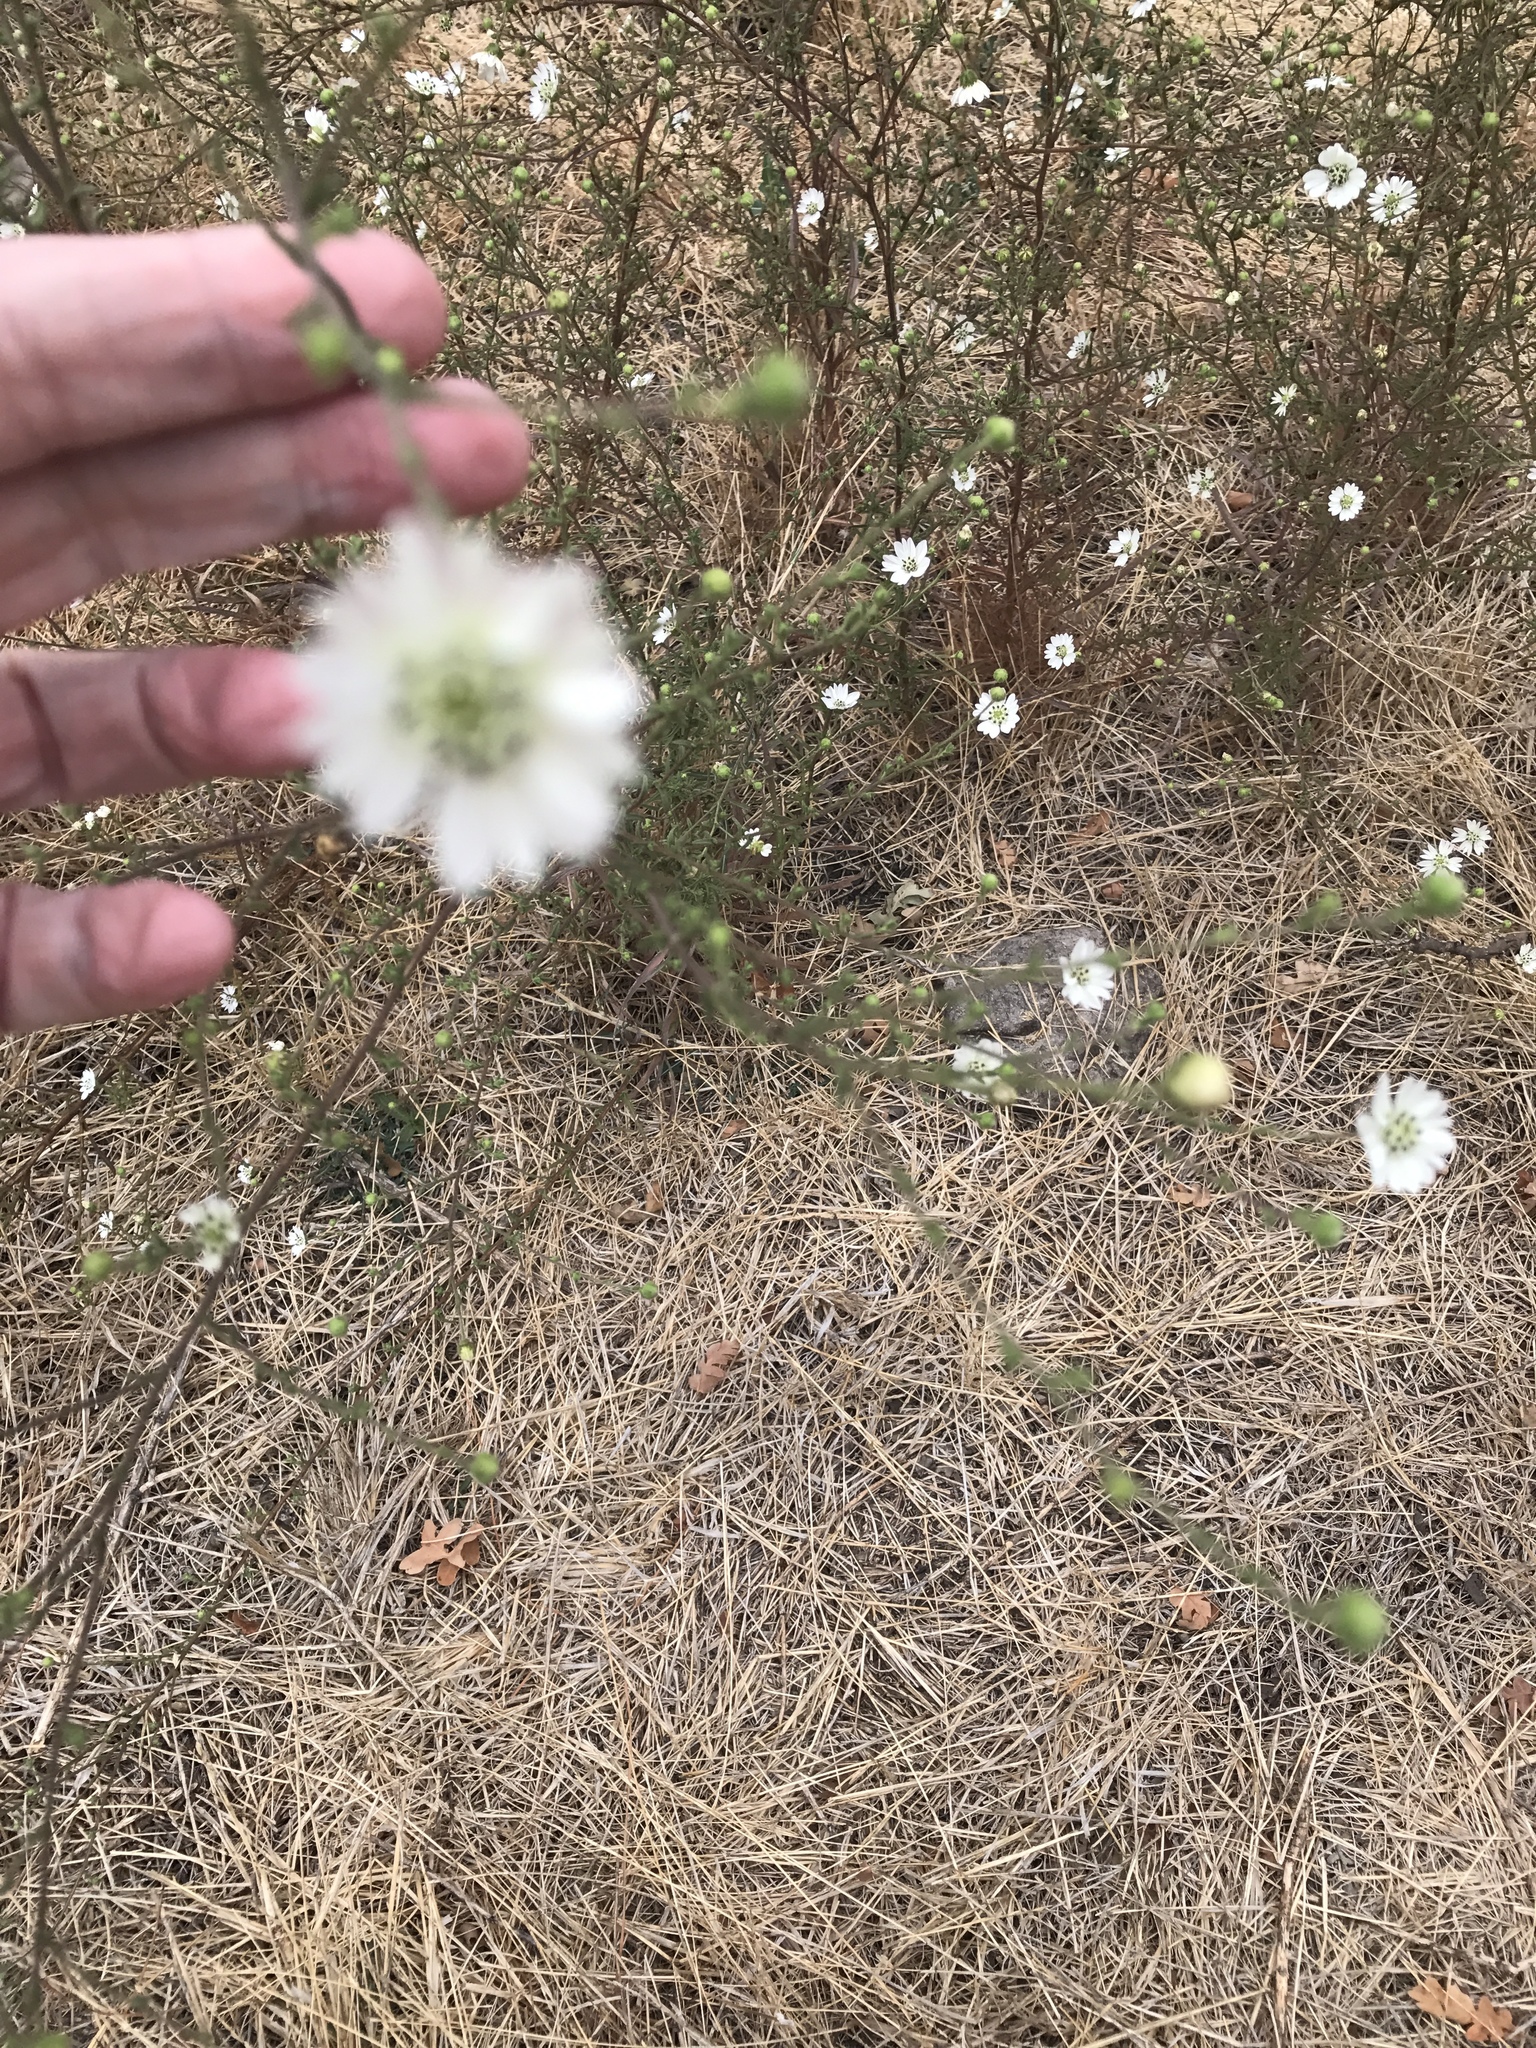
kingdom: Plantae
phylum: Tracheophyta
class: Magnoliopsida
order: Asterales
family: Asteraceae
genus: Hemizonia
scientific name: Hemizonia congesta
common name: Hayfield tarweed
